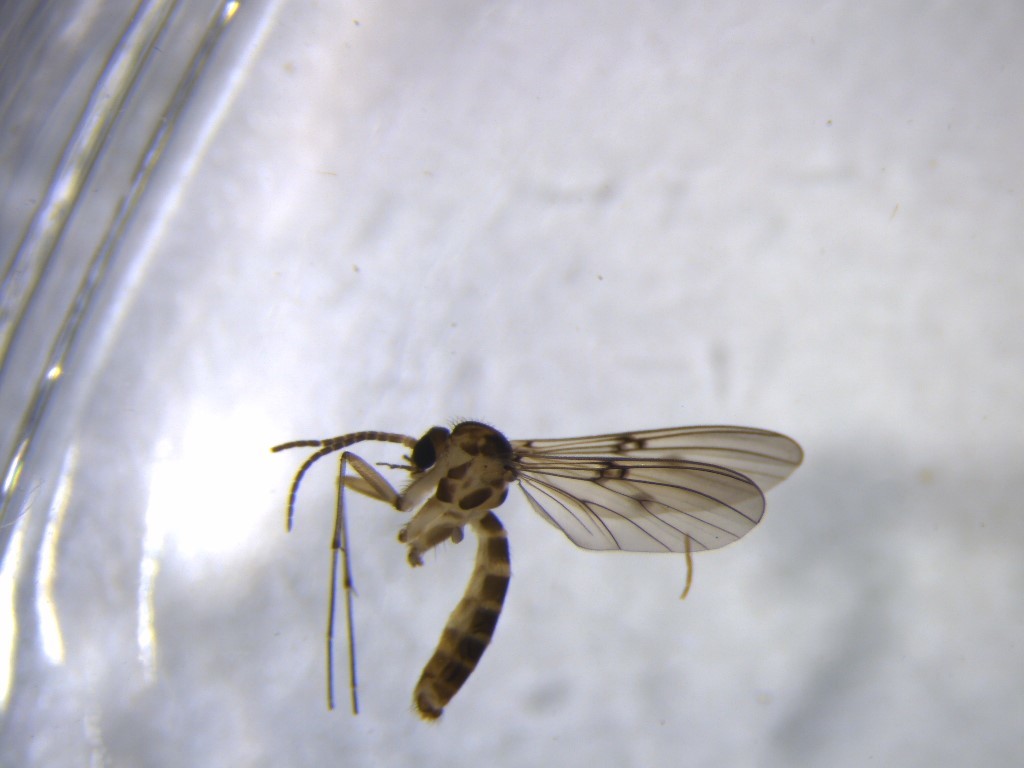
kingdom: Animalia
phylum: Arthropoda
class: Insecta
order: Diptera
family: Mycetophilidae
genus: Mycomya
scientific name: Mycomya quadrimaculata
